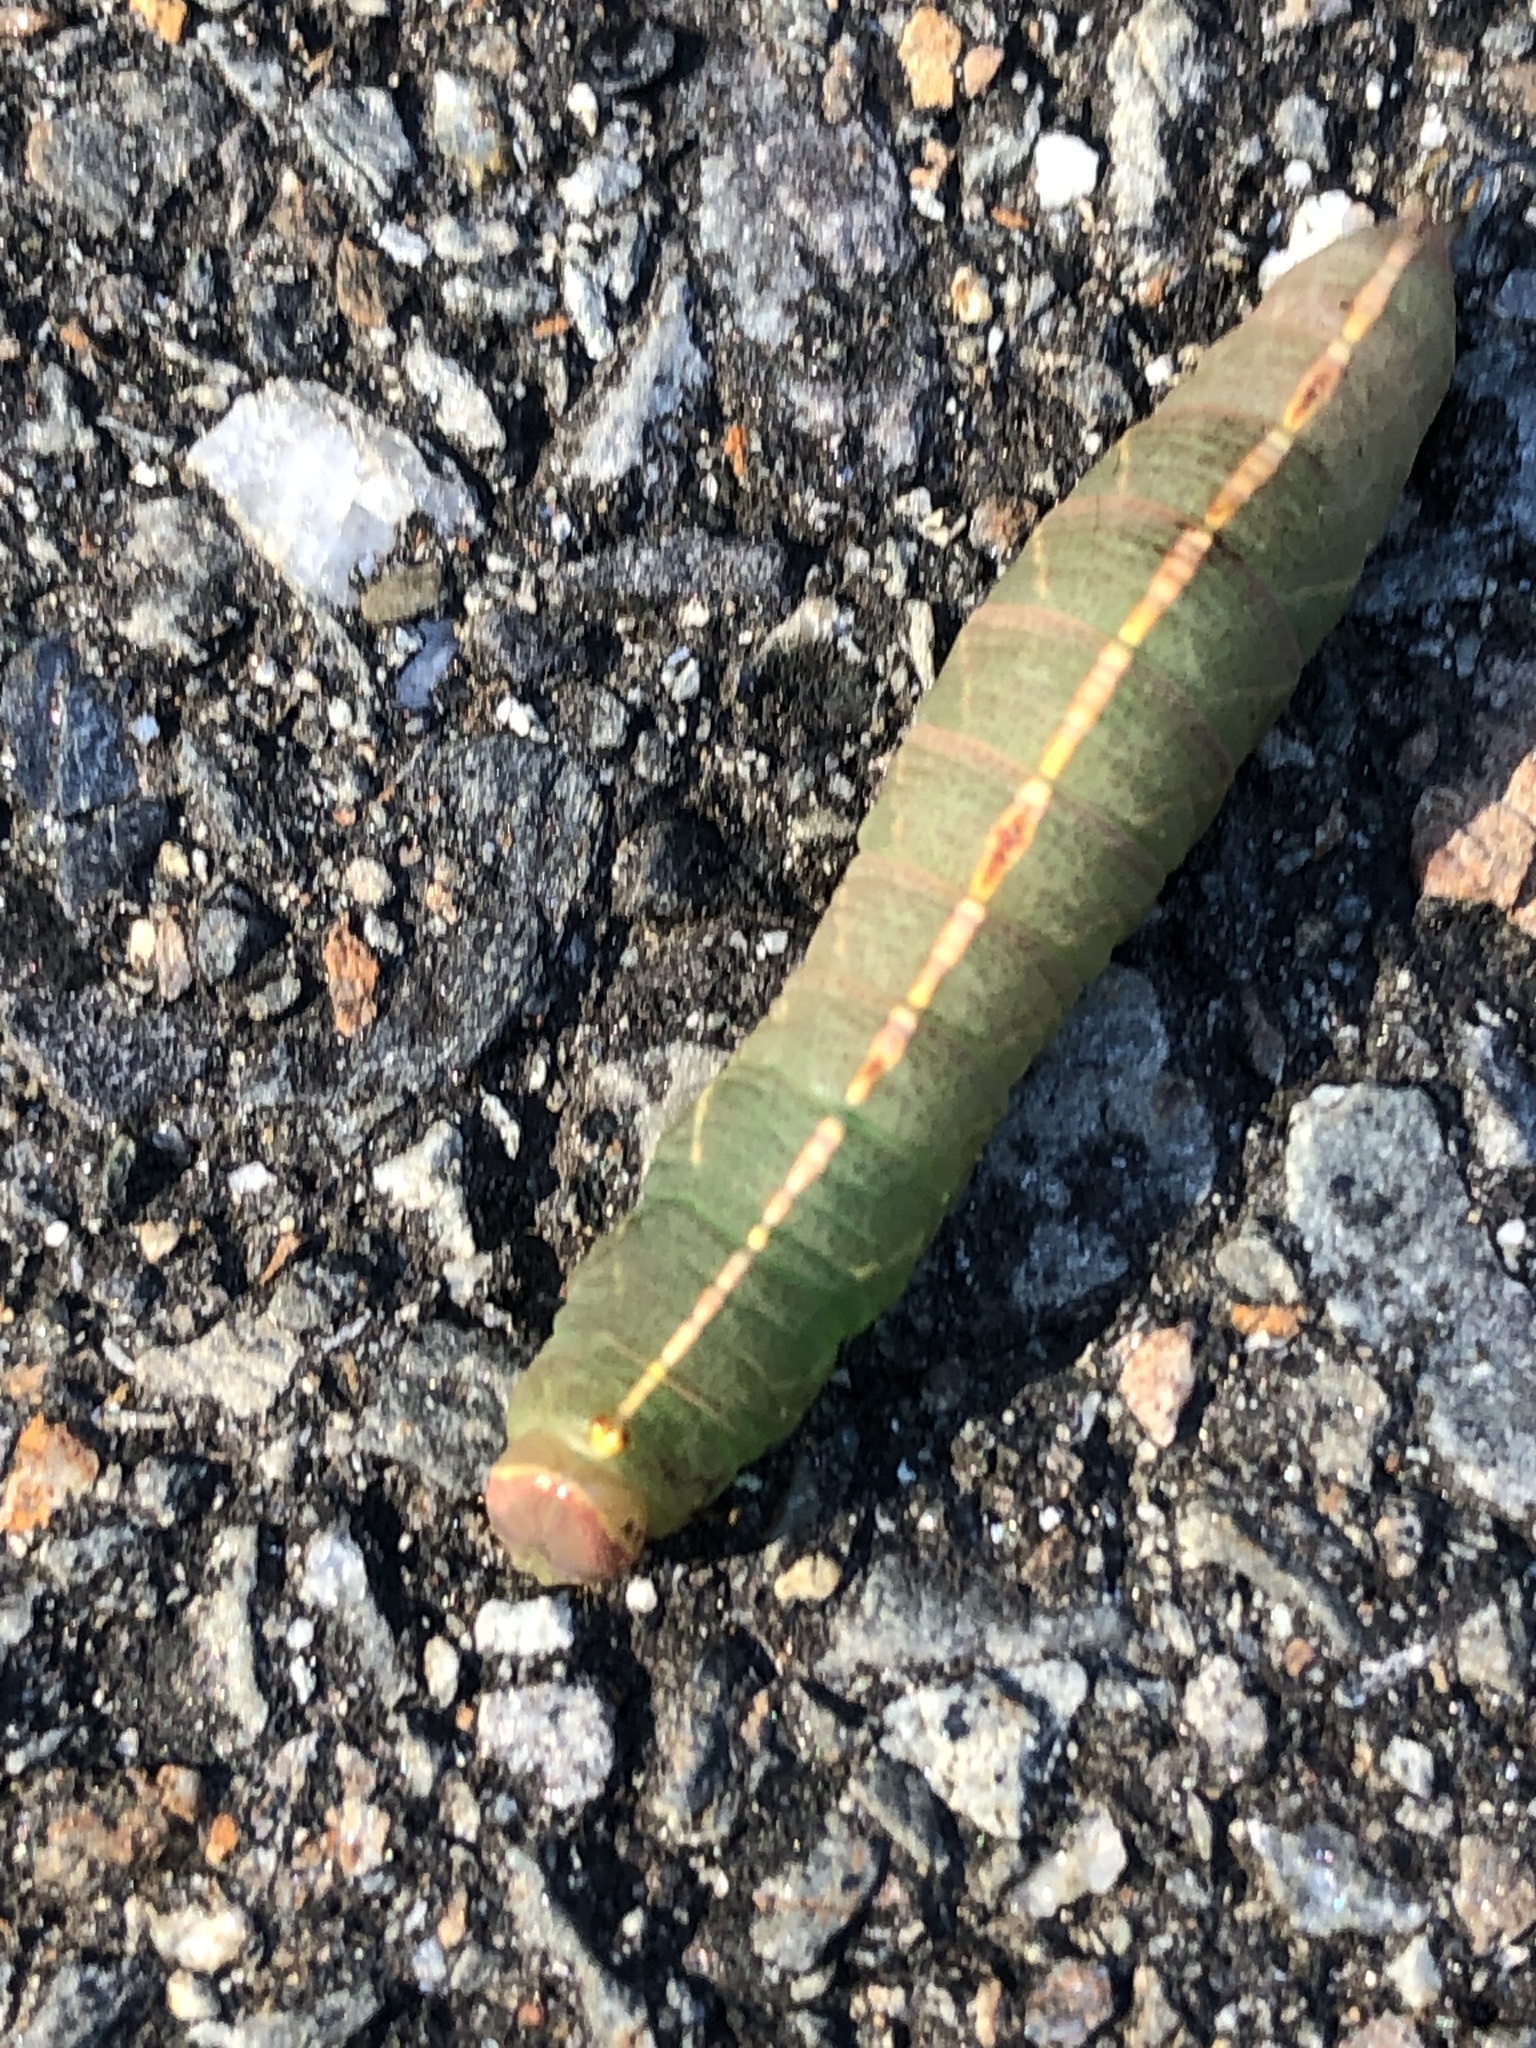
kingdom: Animalia
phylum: Arthropoda
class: Insecta
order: Lepidoptera
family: Notodontidae
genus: Macrurocampa
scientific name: Macrurocampa marthesia
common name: Mottled prominent
